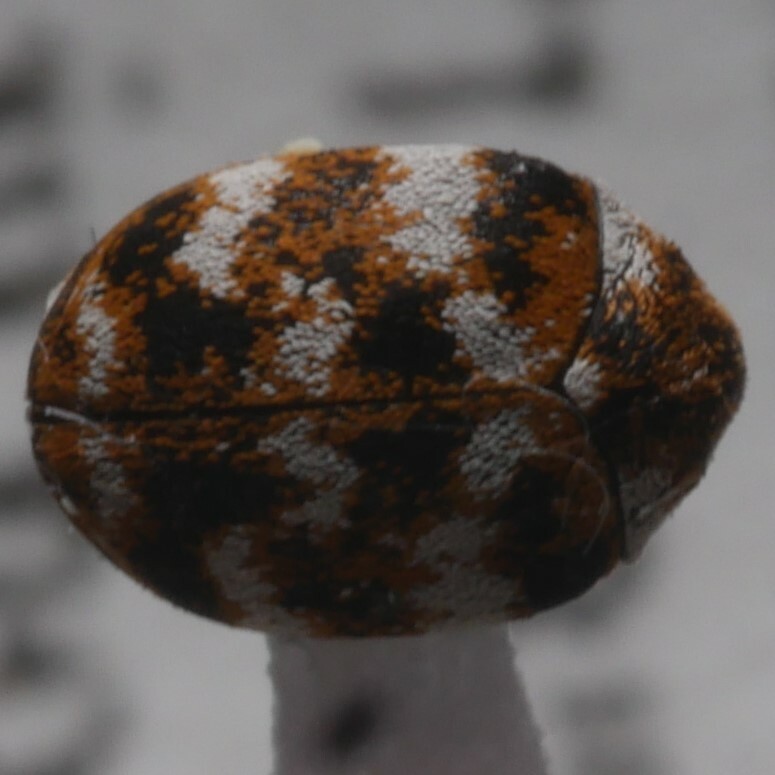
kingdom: Animalia
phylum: Arthropoda
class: Insecta
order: Coleoptera
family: Dermestidae
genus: Anthrenus
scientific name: Anthrenus verbasci
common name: Varied carpet beetle
